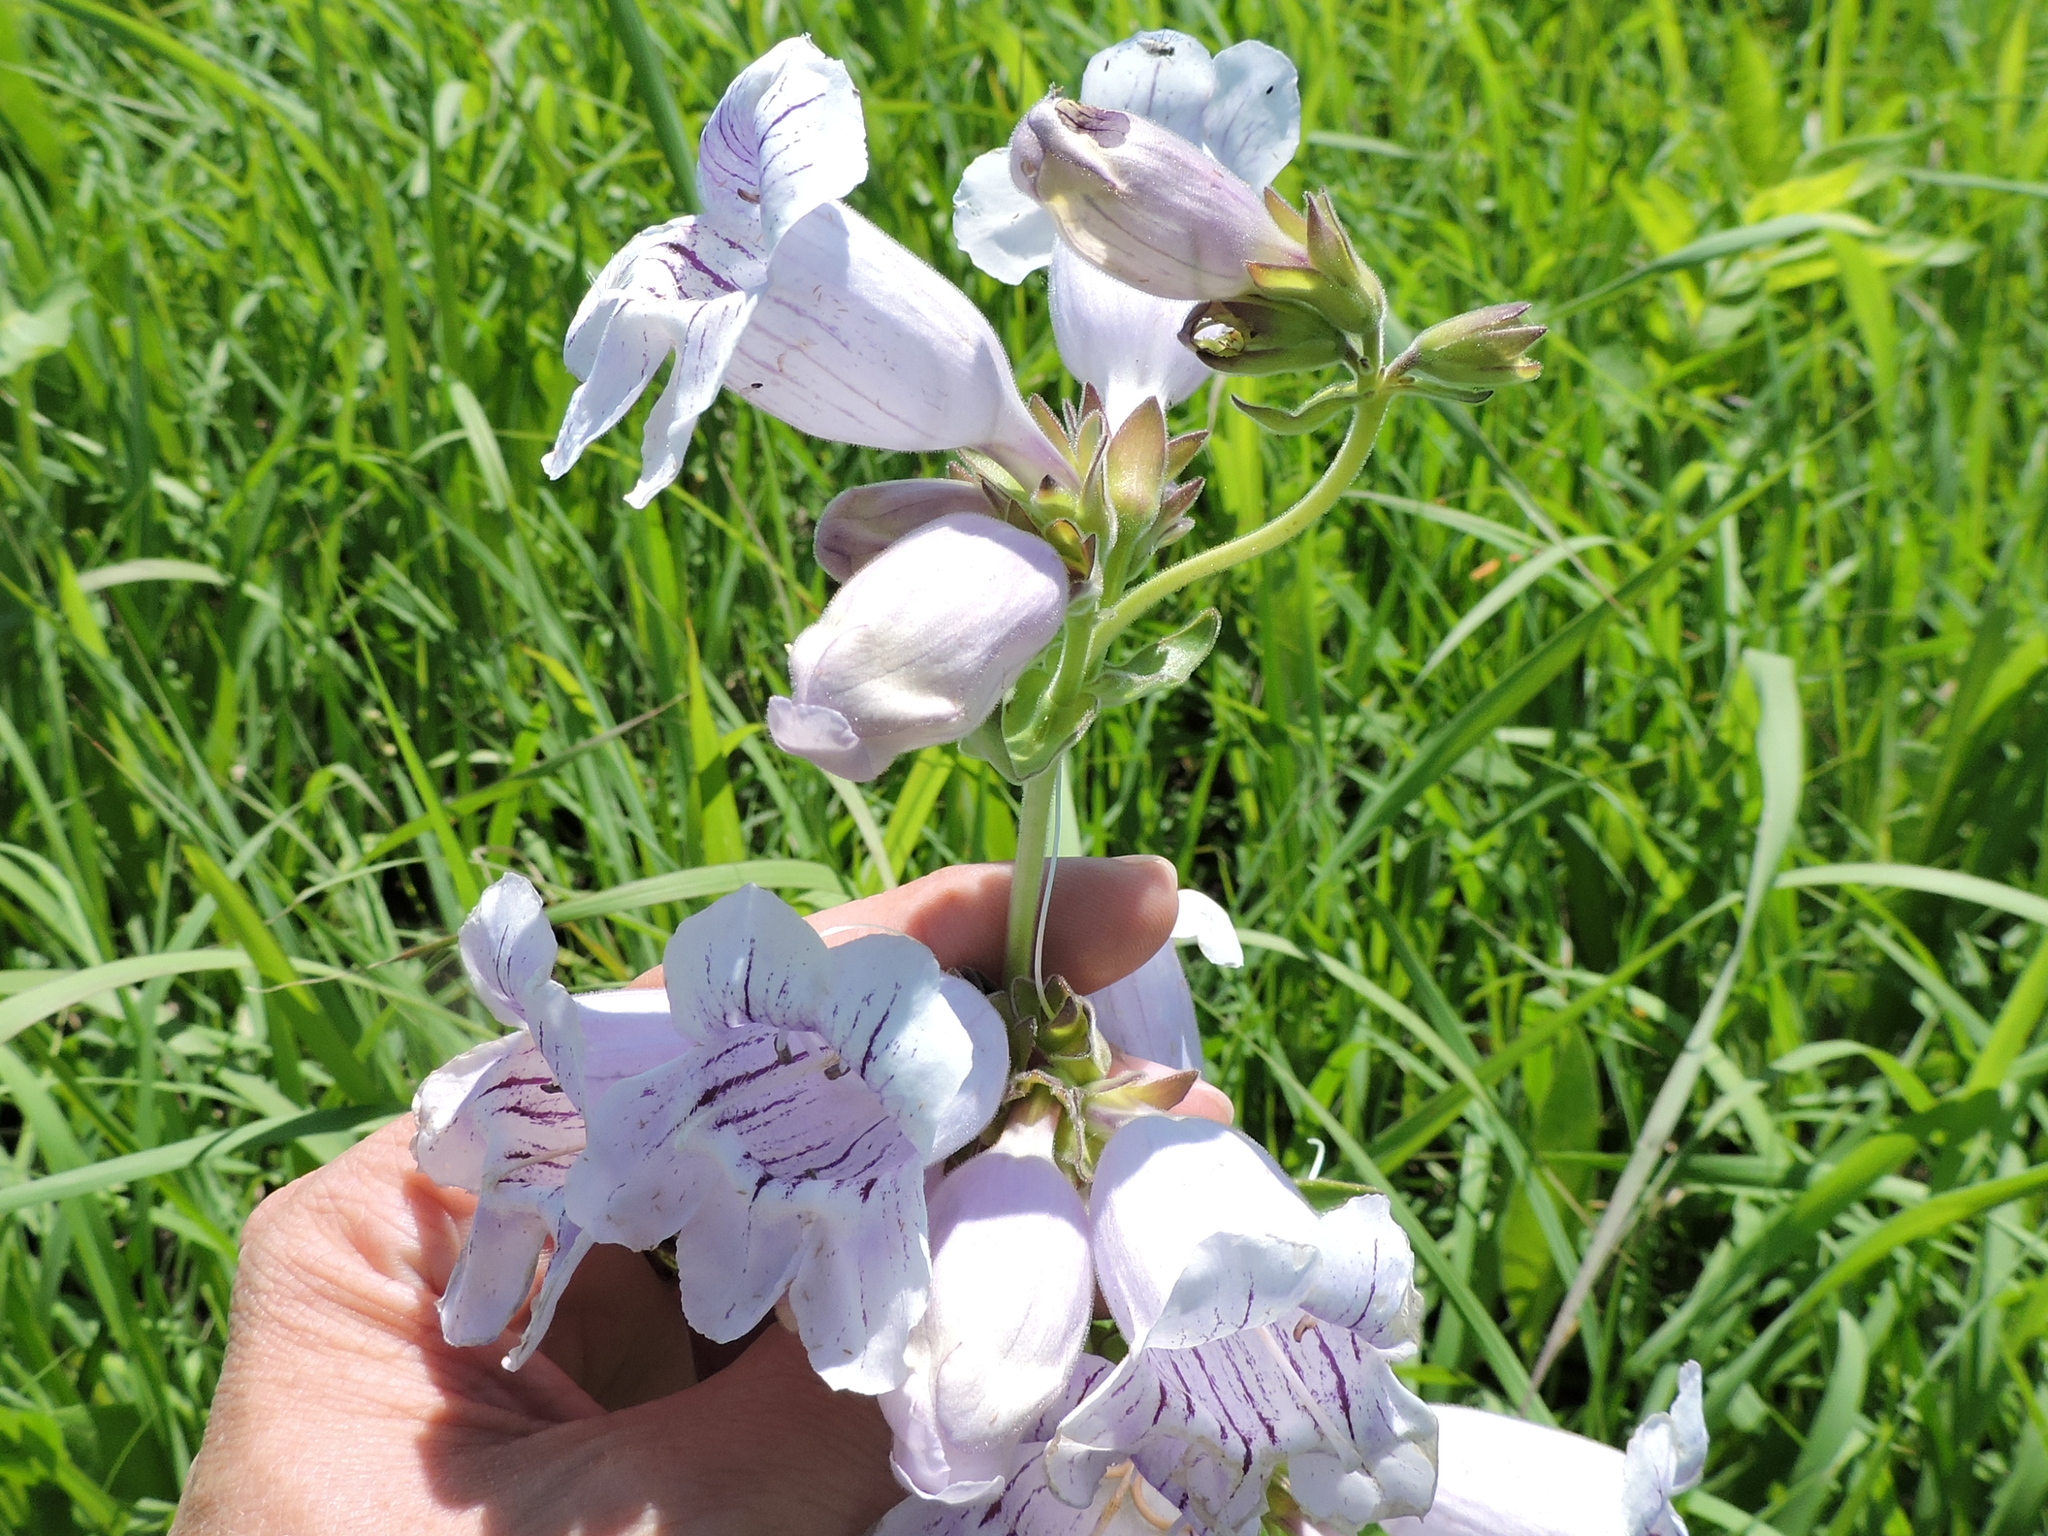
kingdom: Plantae
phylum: Tracheophyta
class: Magnoliopsida
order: Lamiales
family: Plantaginaceae
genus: Penstemon
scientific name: Penstemon cobaea
